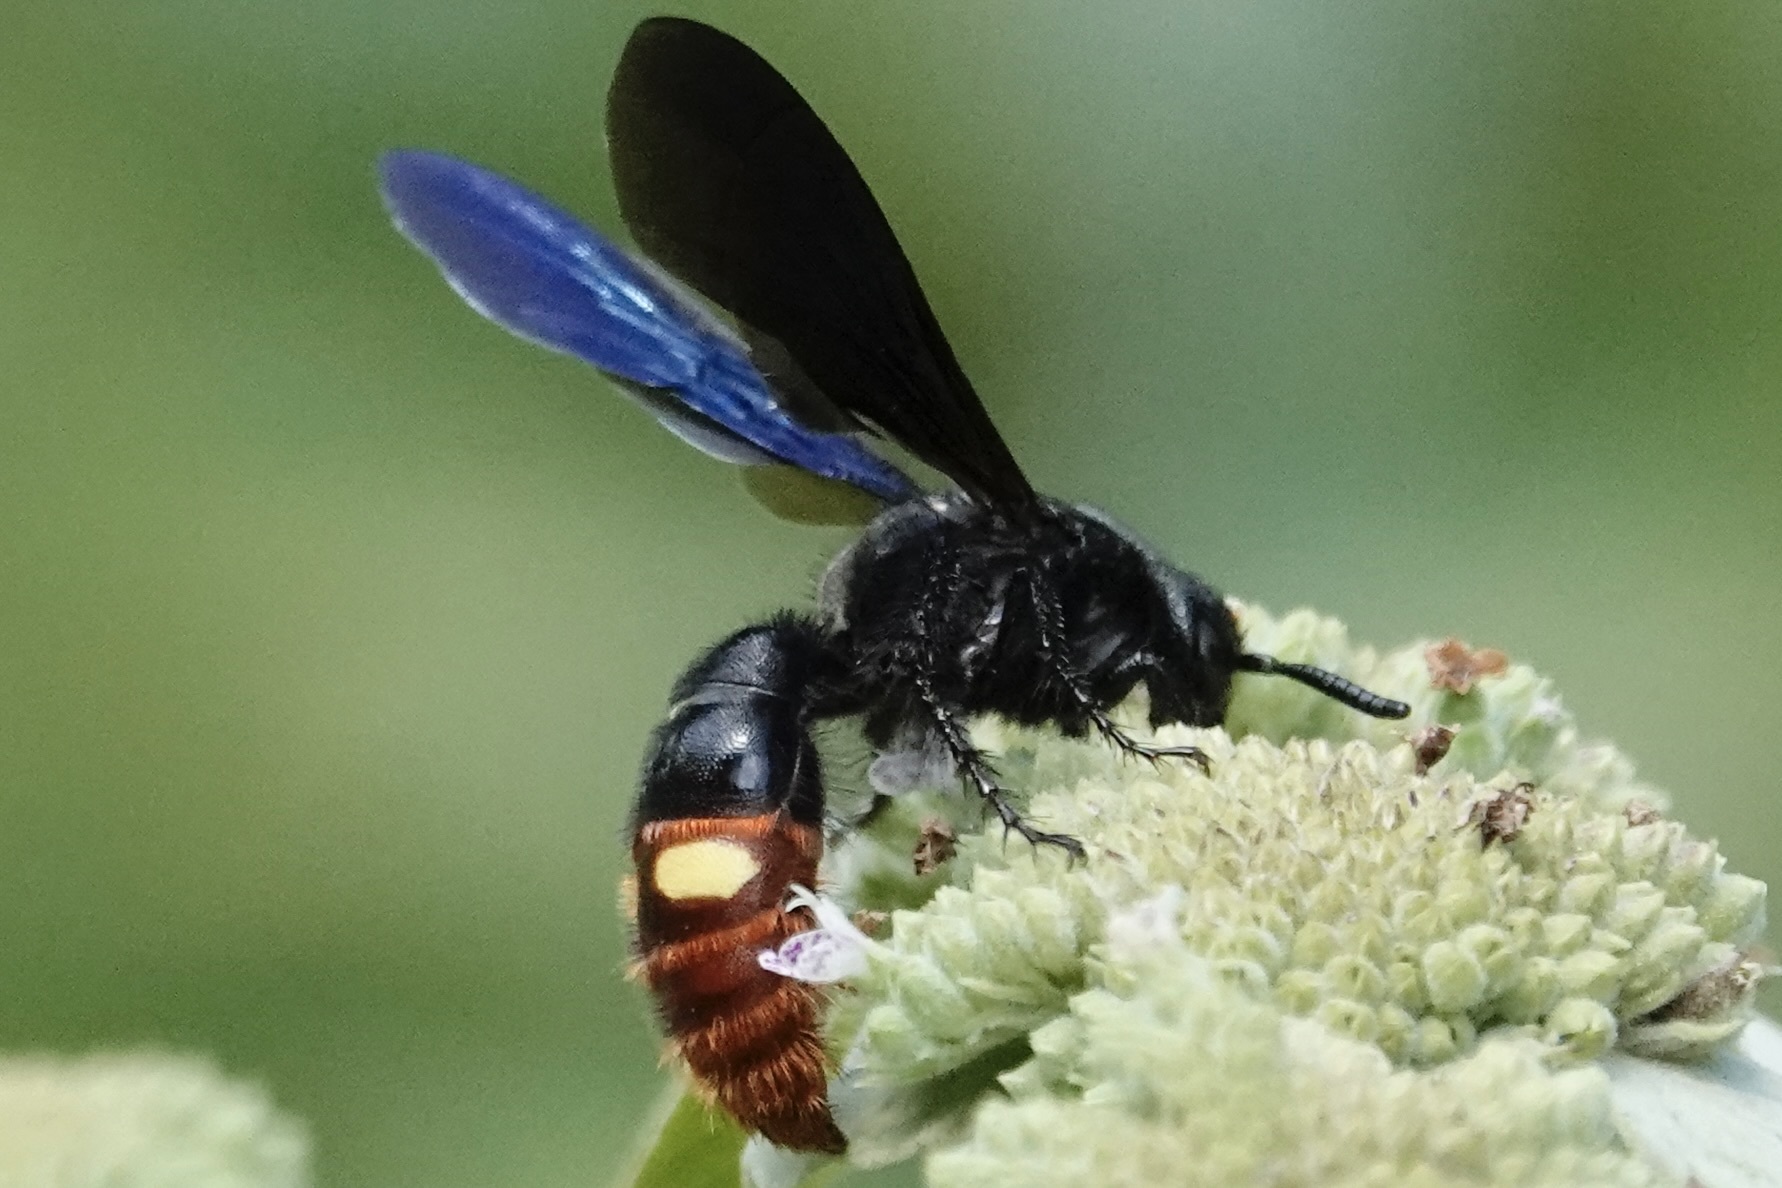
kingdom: Animalia
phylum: Arthropoda
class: Insecta
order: Hymenoptera
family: Scoliidae
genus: Scolia
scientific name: Scolia dubia
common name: Blue-winged scoliid wasp
